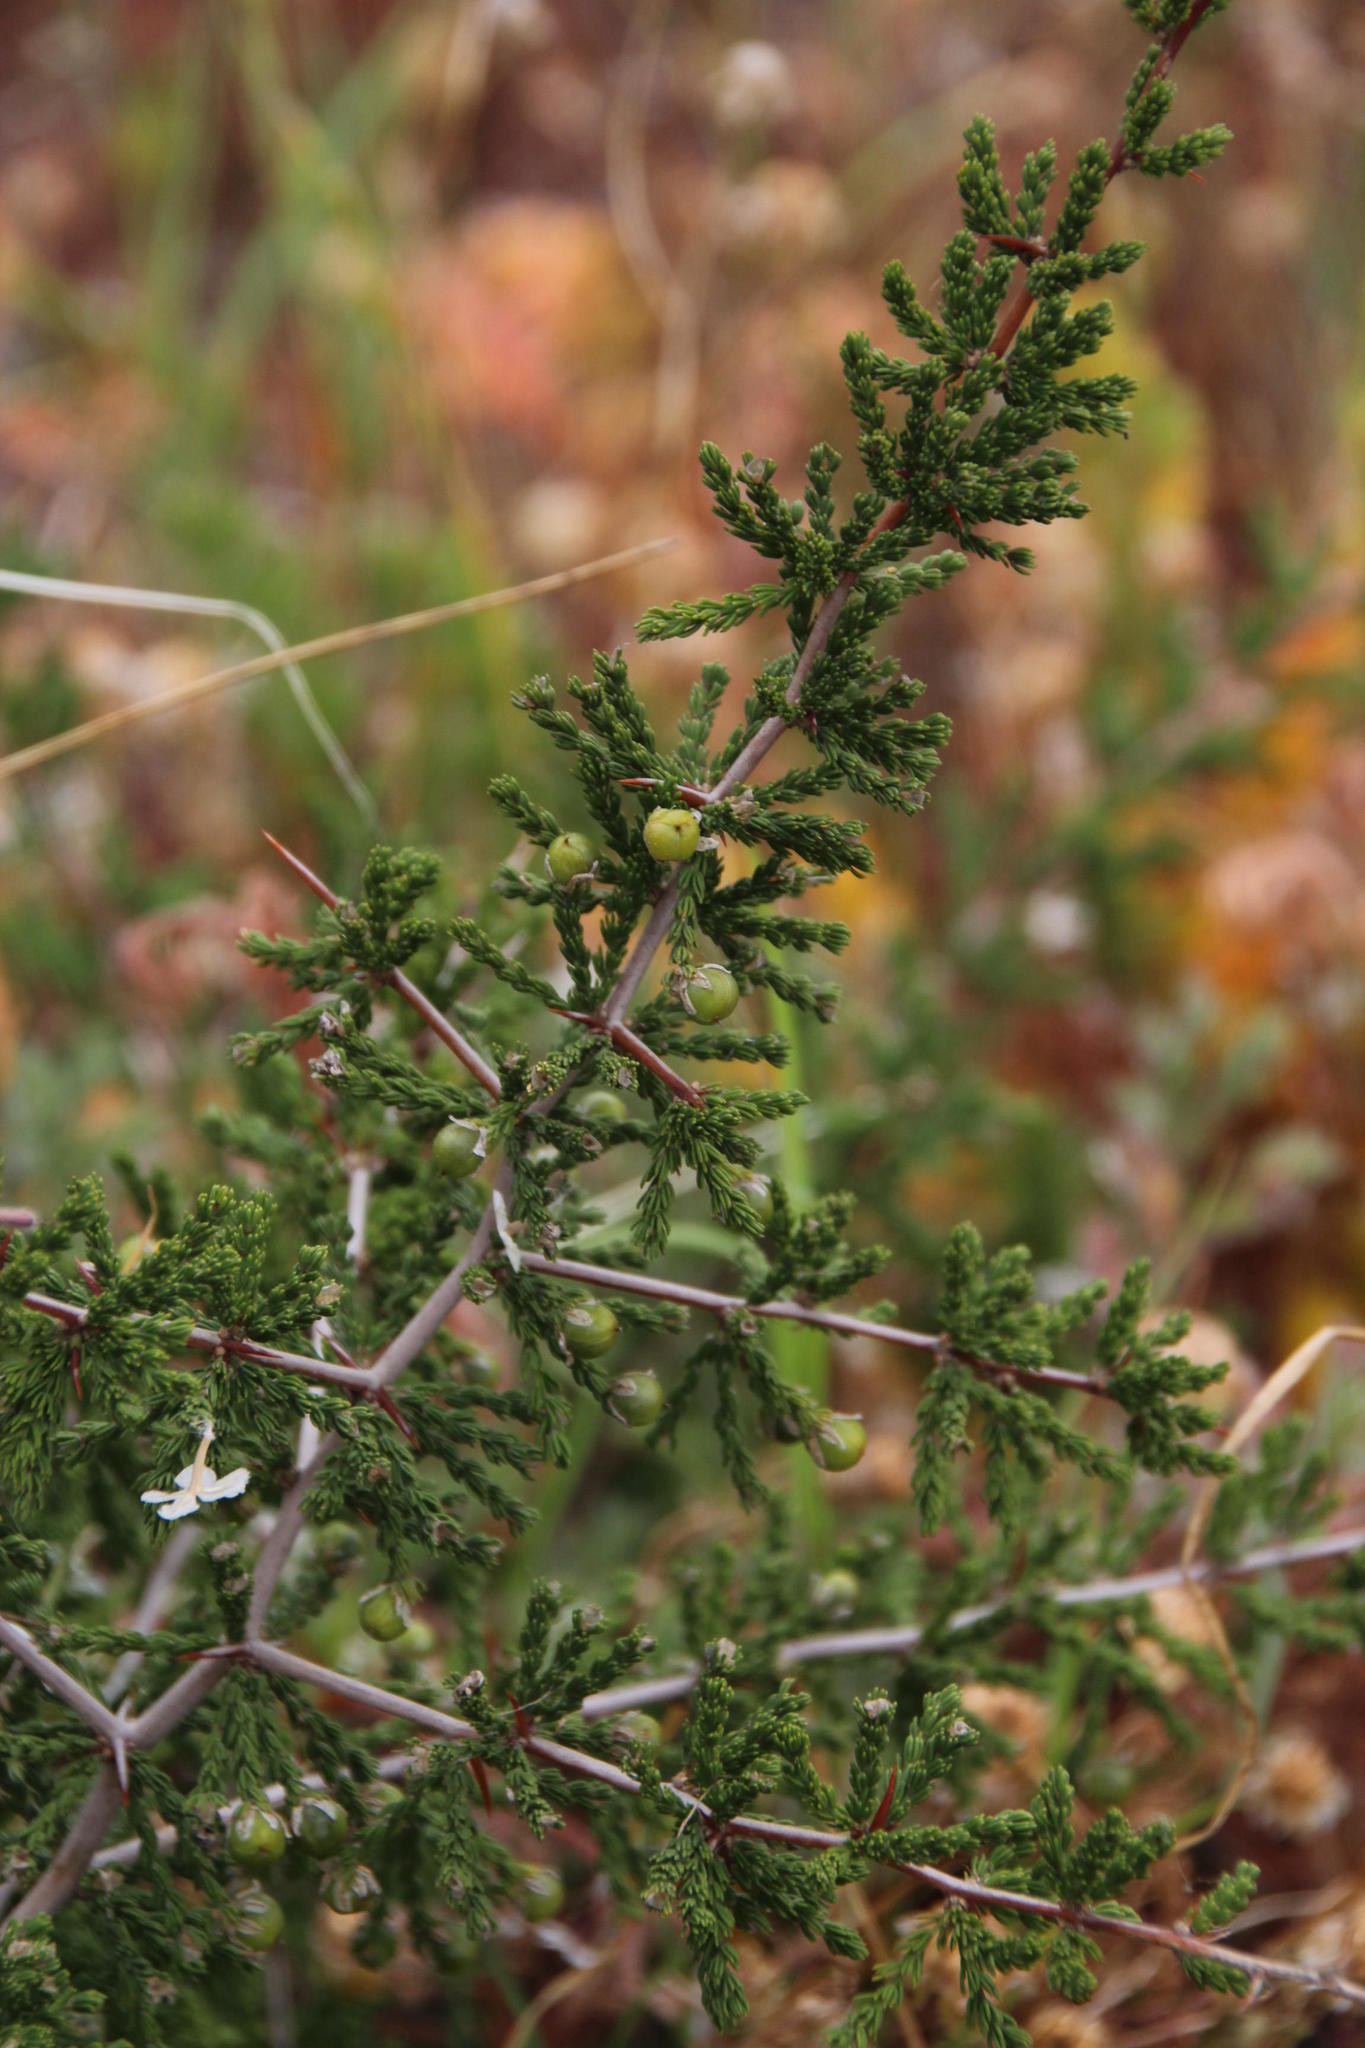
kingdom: Plantae
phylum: Tracheophyta
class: Liliopsida
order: Asparagales
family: Asparagaceae
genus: Asparagus
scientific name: Asparagus capensis
